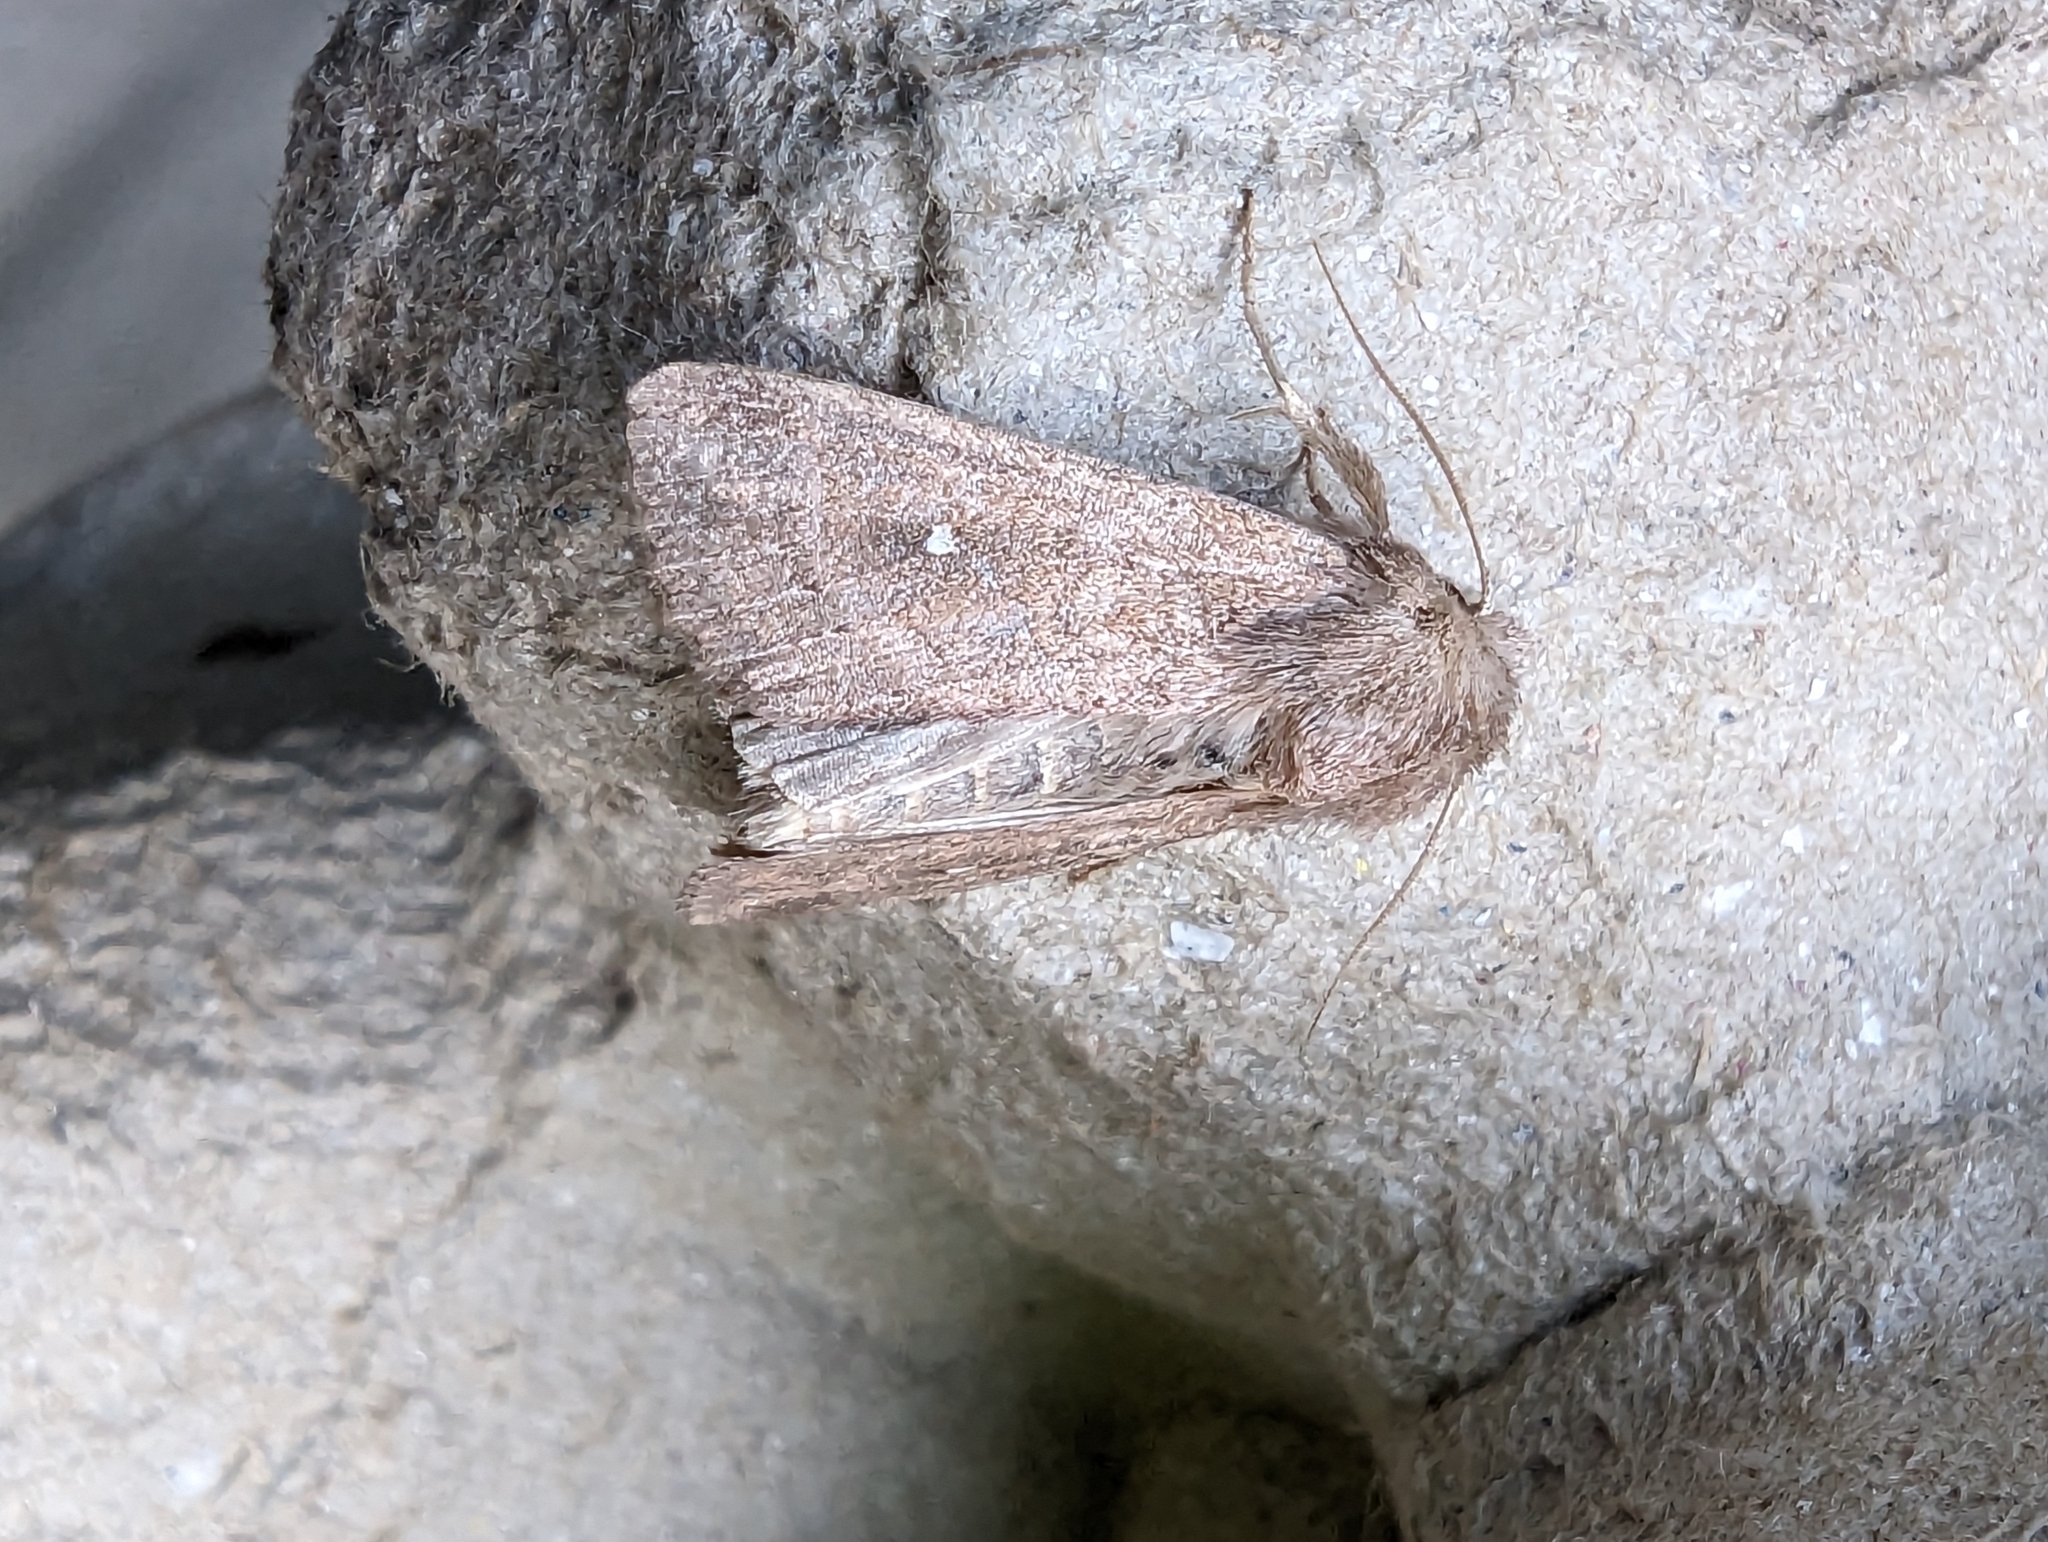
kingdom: Animalia
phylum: Arthropoda
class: Insecta
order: Lepidoptera
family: Noctuidae
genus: Mythimna
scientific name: Mythimna albipuncta
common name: White-point
